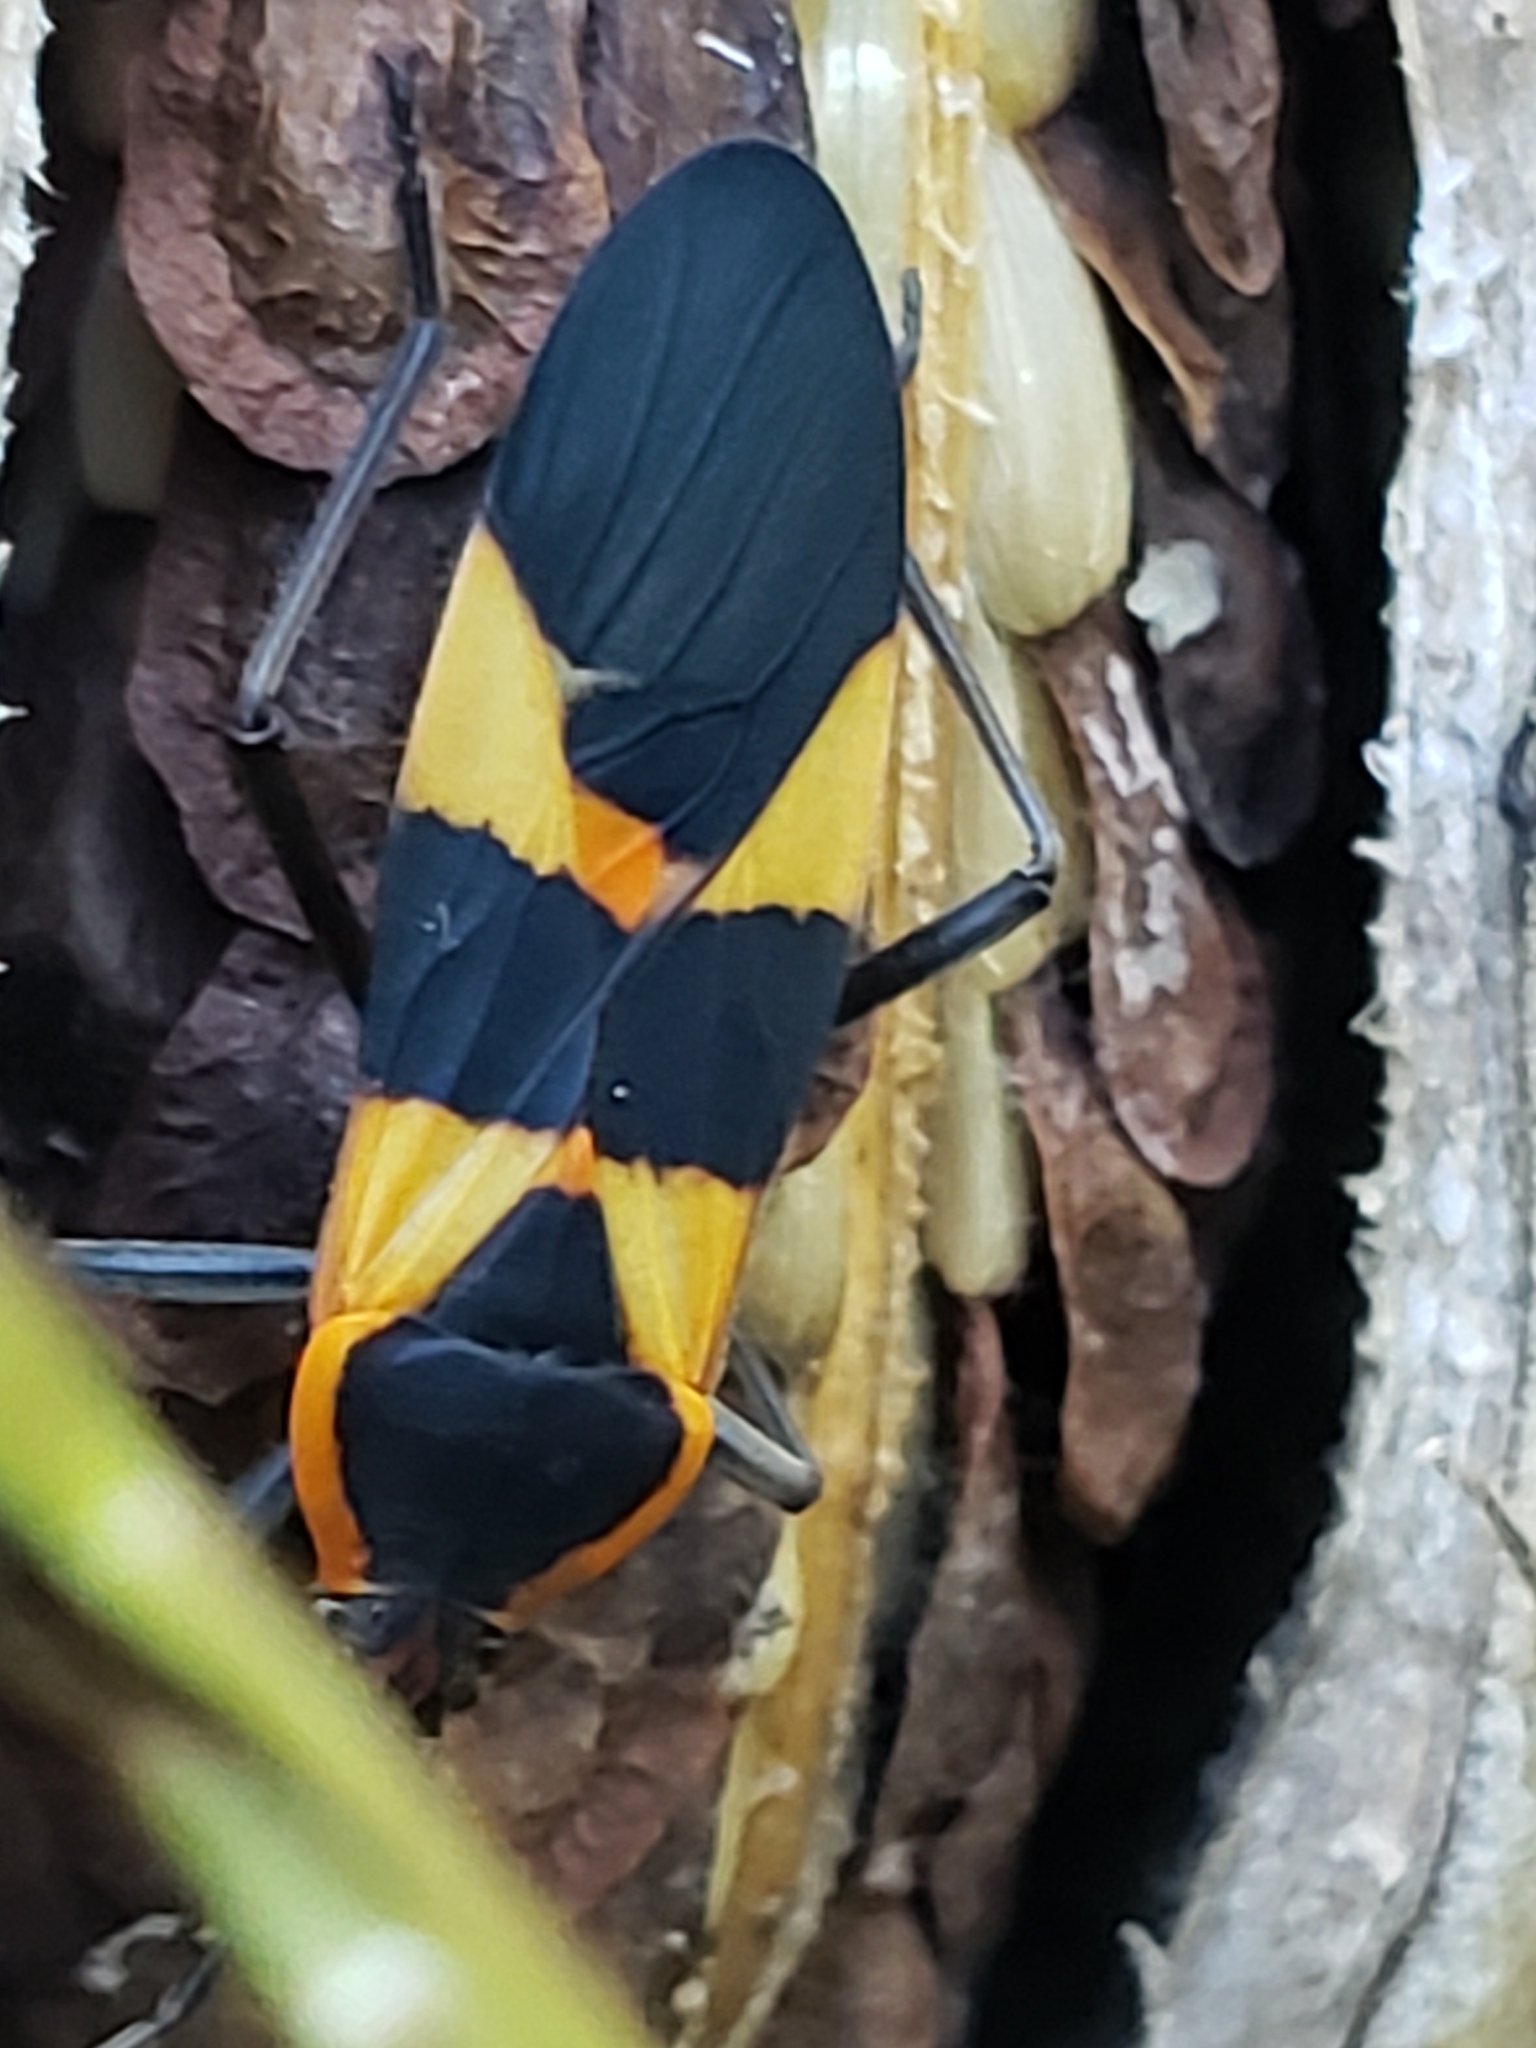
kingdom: Animalia
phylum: Arthropoda
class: Insecta
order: Hemiptera
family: Lygaeidae
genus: Oncopeltus
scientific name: Oncopeltus fasciatus
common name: Large milkweed bug
